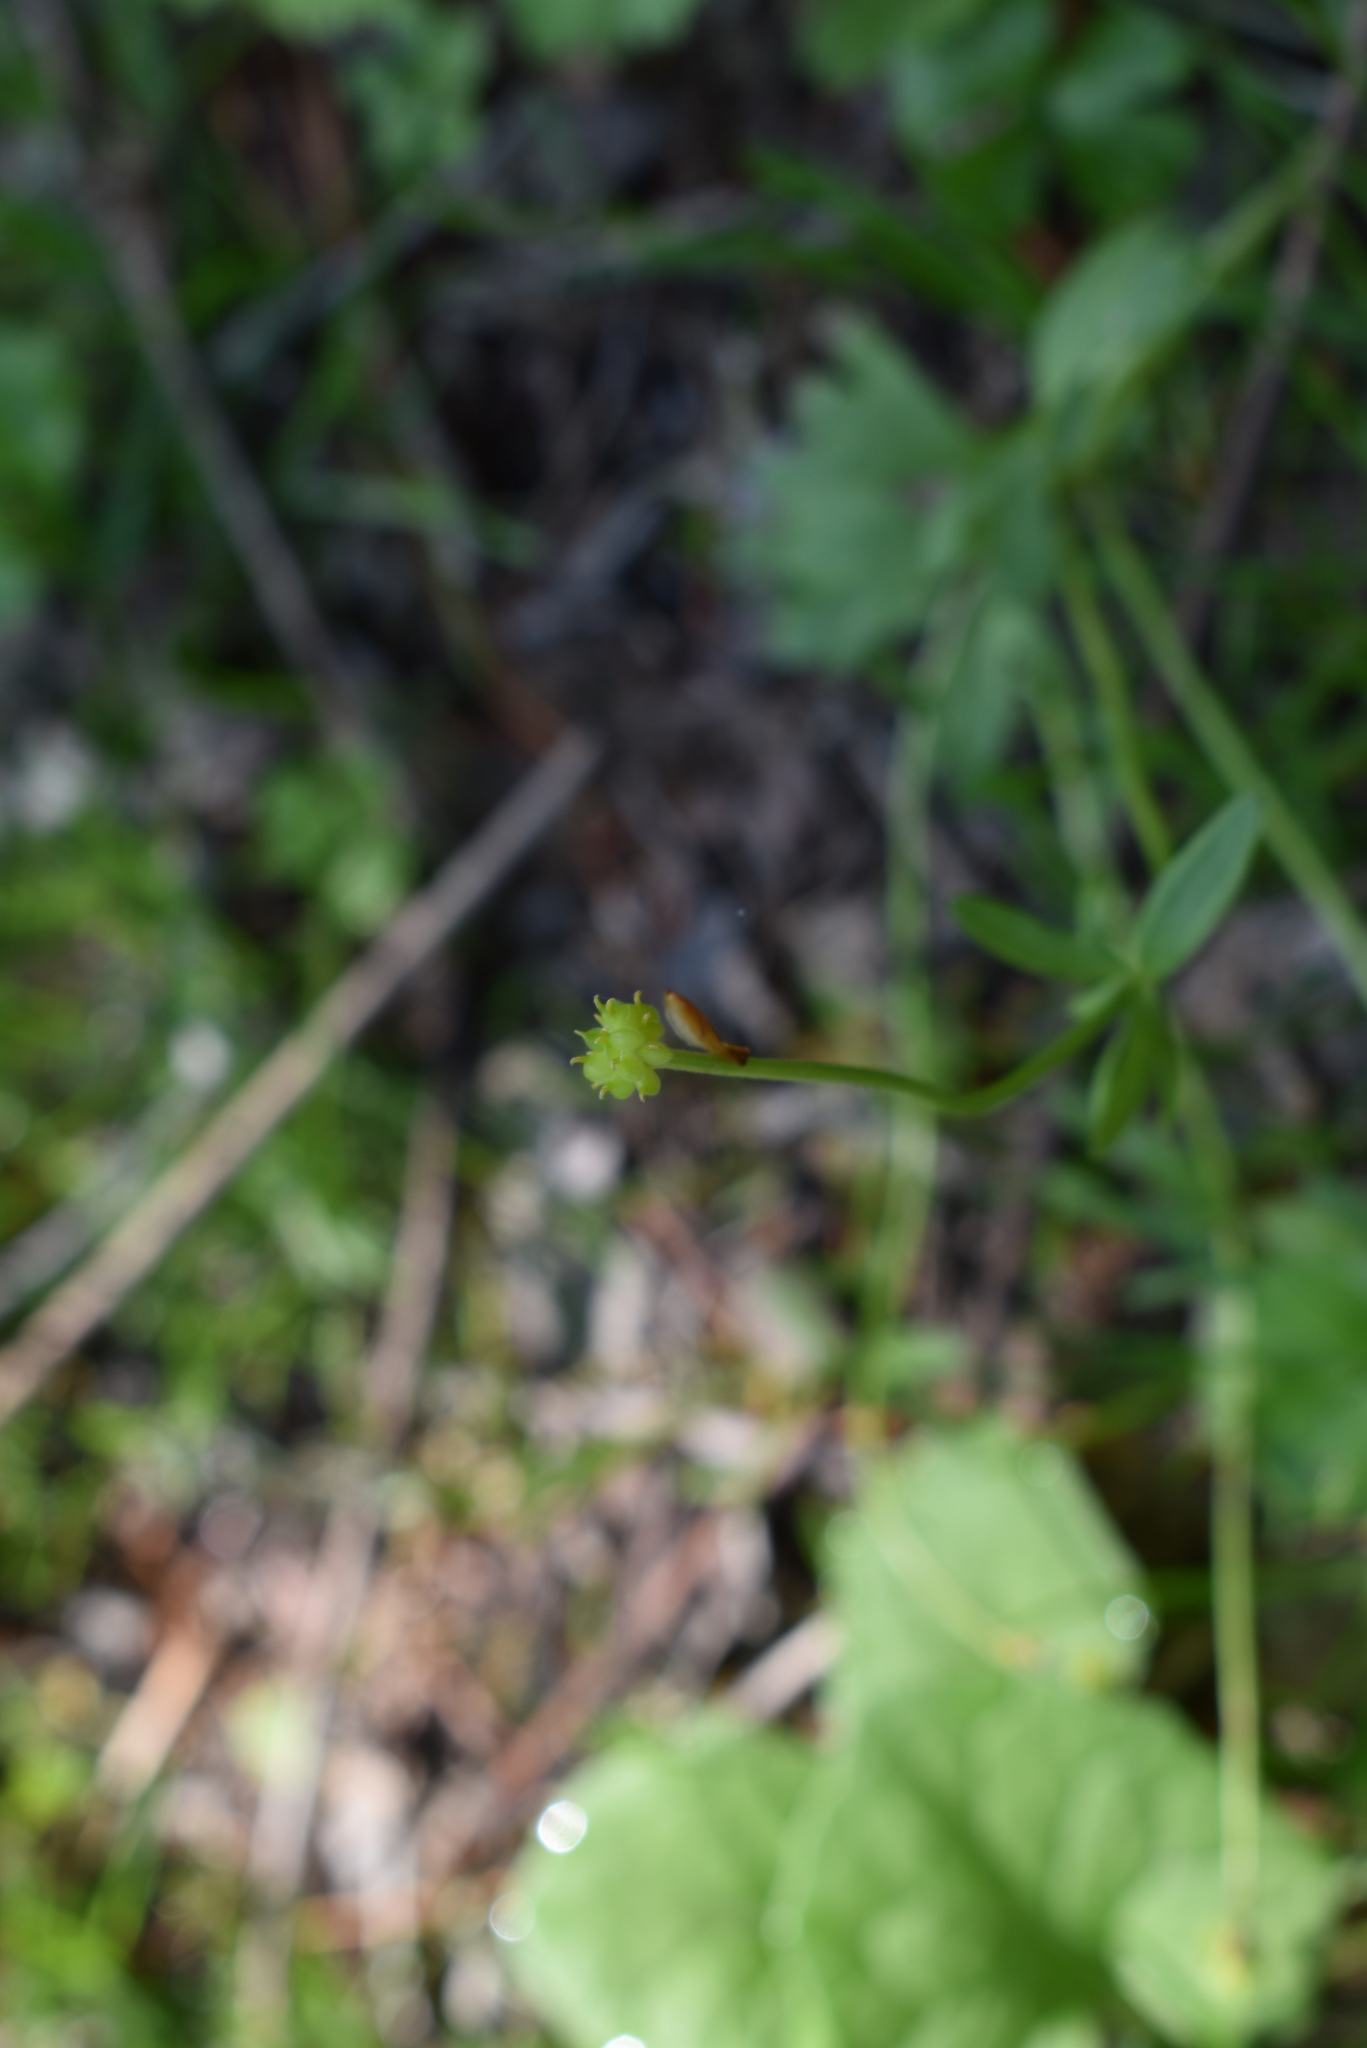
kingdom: Plantae
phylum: Tracheophyta
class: Magnoliopsida
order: Ranunculales
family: Ranunculaceae
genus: Ranunculus
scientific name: Ranunculus franchetii
